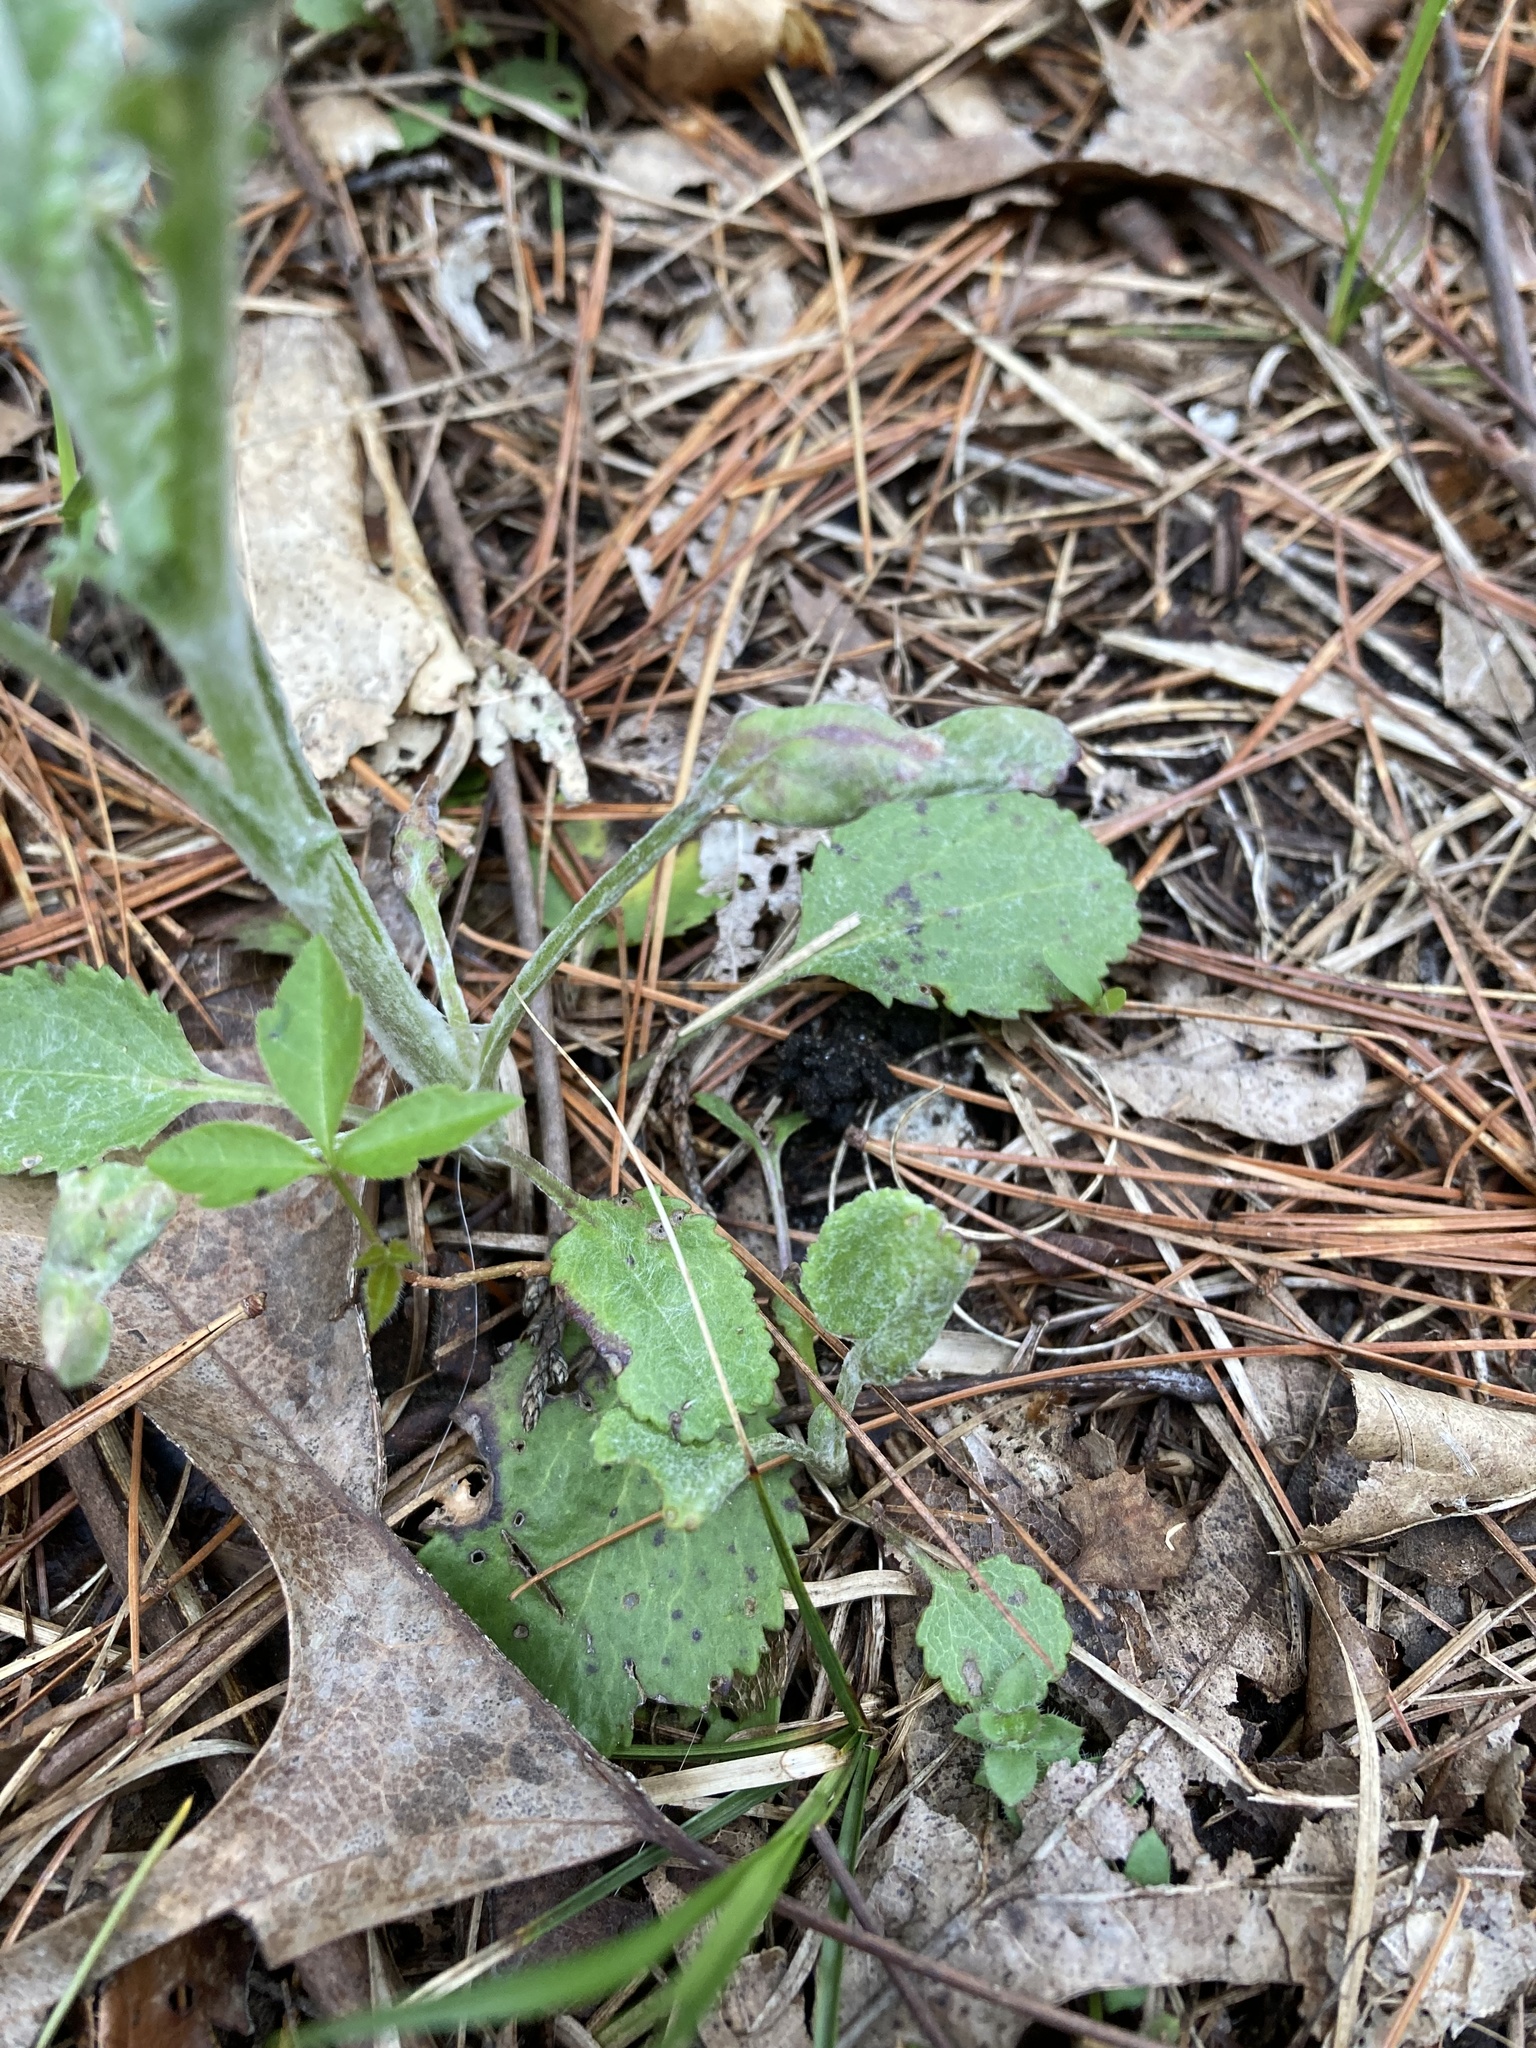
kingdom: Plantae
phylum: Tracheophyta
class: Magnoliopsida
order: Asterales
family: Asteraceae
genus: Packera
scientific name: Packera paupercula
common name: Balsam groundsel
